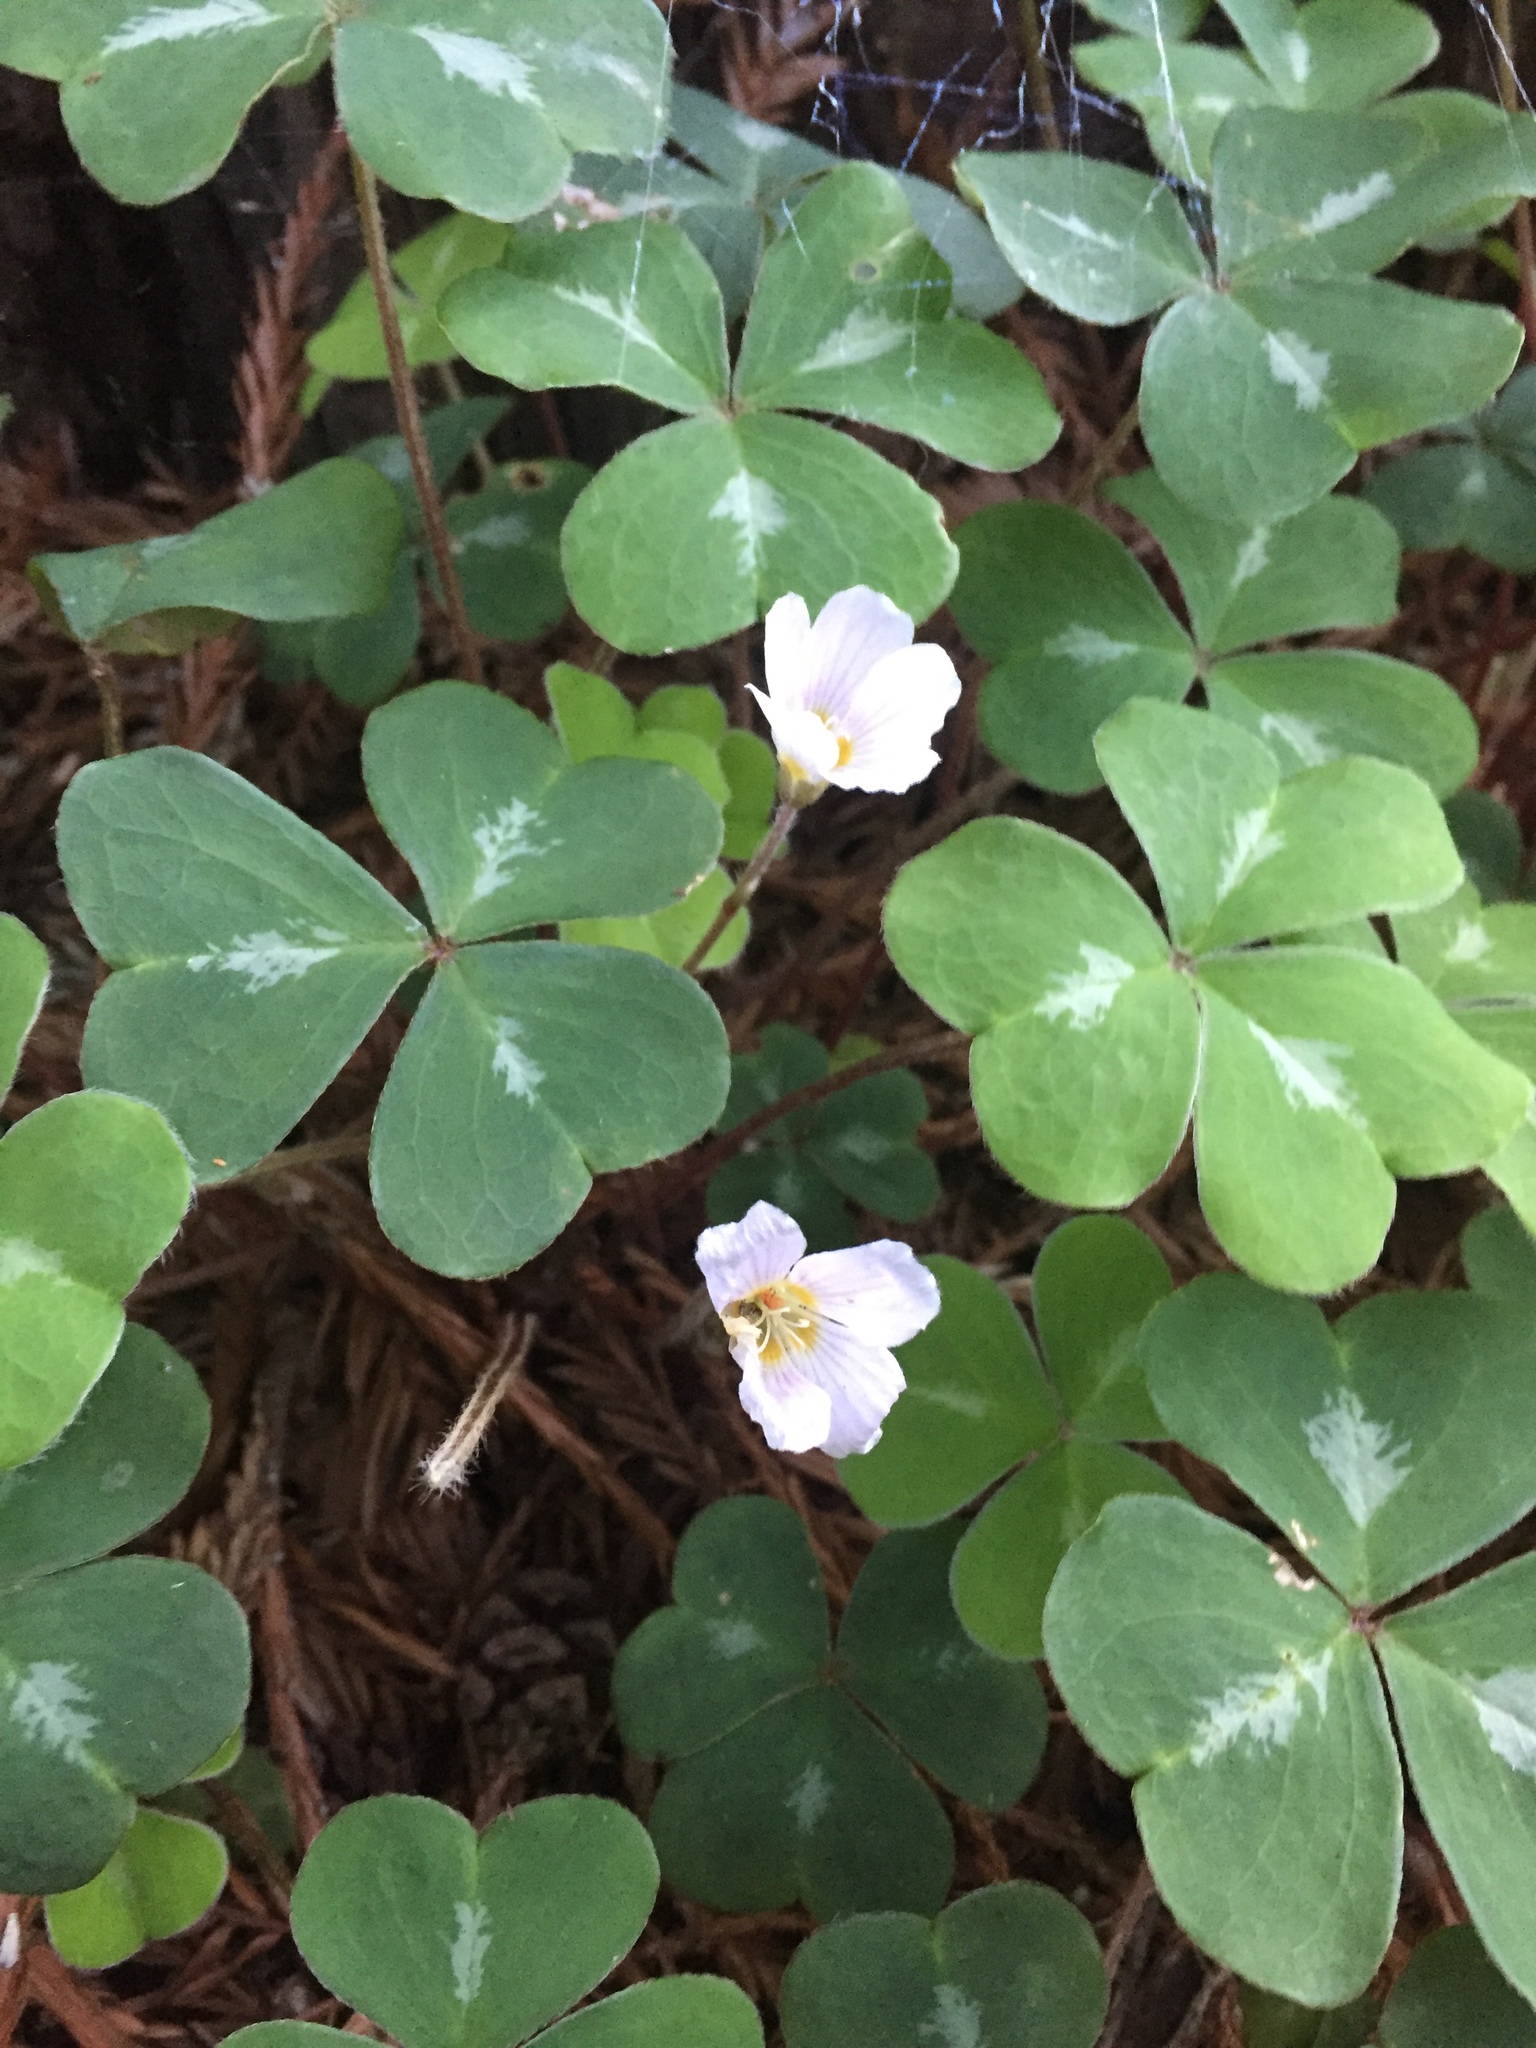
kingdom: Plantae
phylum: Tracheophyta
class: Magnoliopsida
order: Oxalidales
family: Oxalidaceae
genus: Oxalis
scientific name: Oxalis oregana
